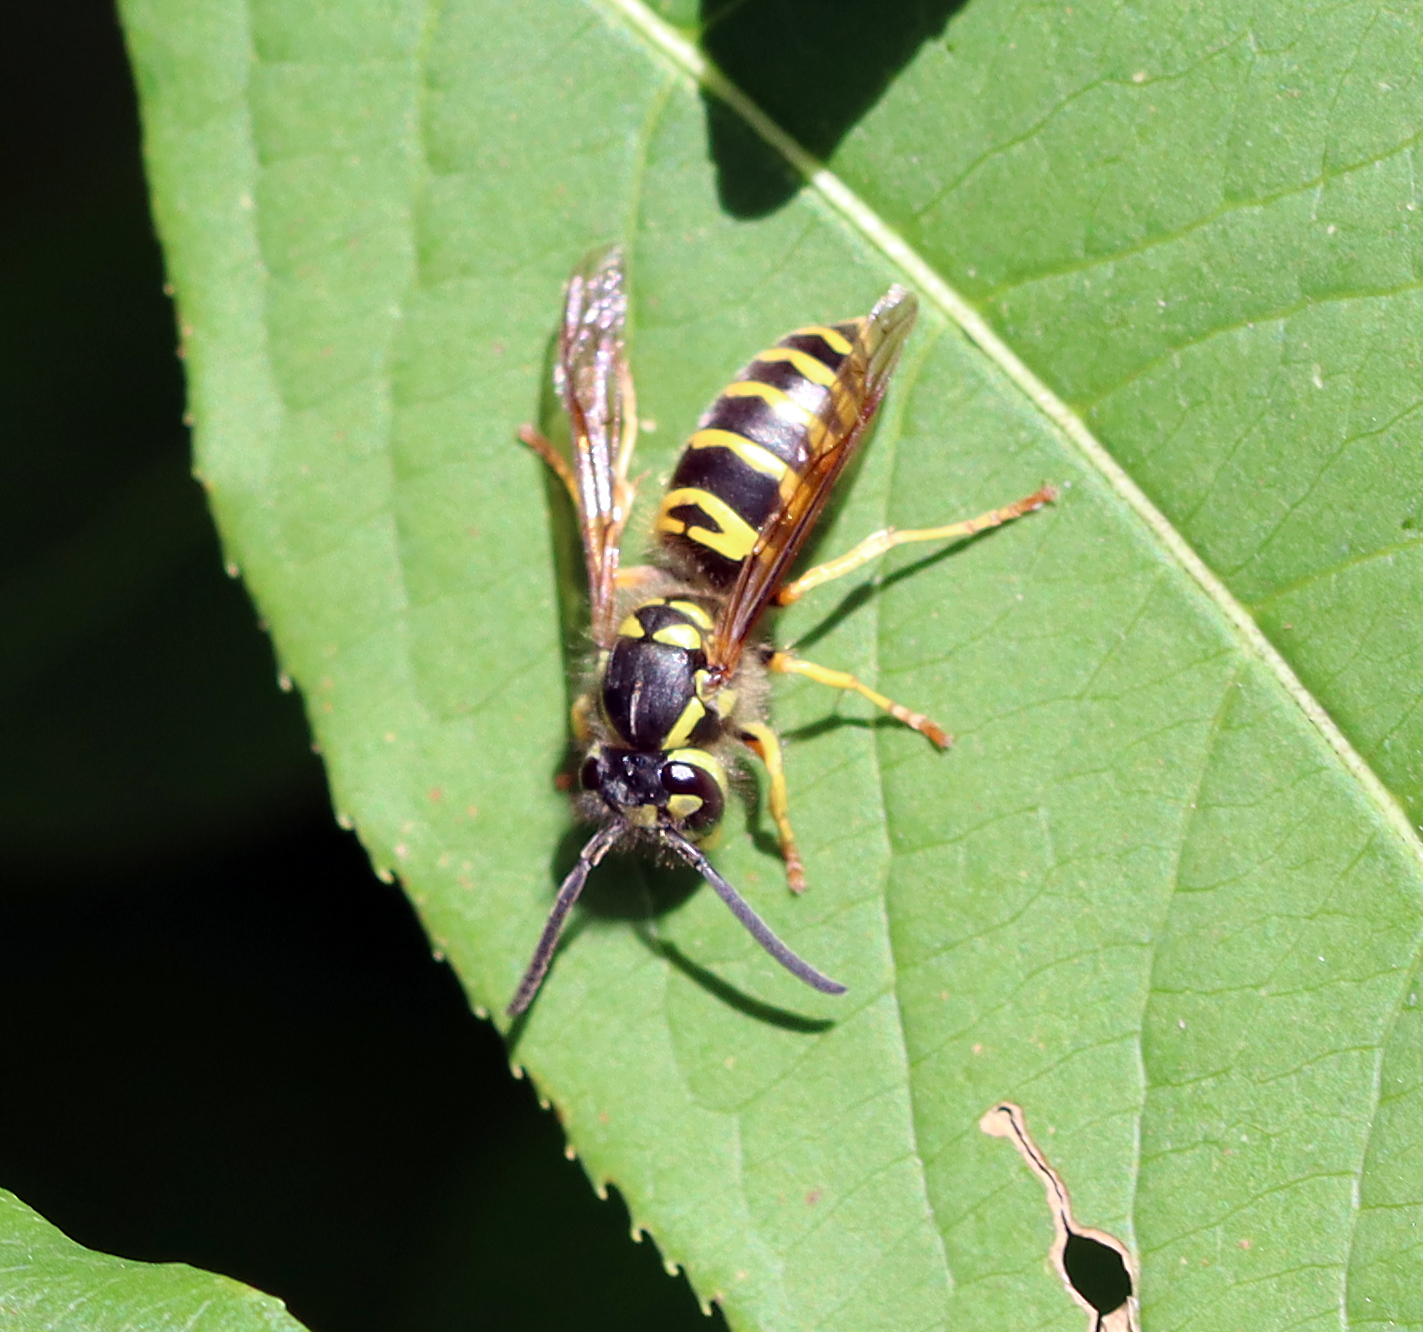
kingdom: Animalia
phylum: Arthropoda
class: Insecta
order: Hymenoptera
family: Vespidae
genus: Vespula
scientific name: Vespula maculifrons
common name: Eastern yellowjacket
